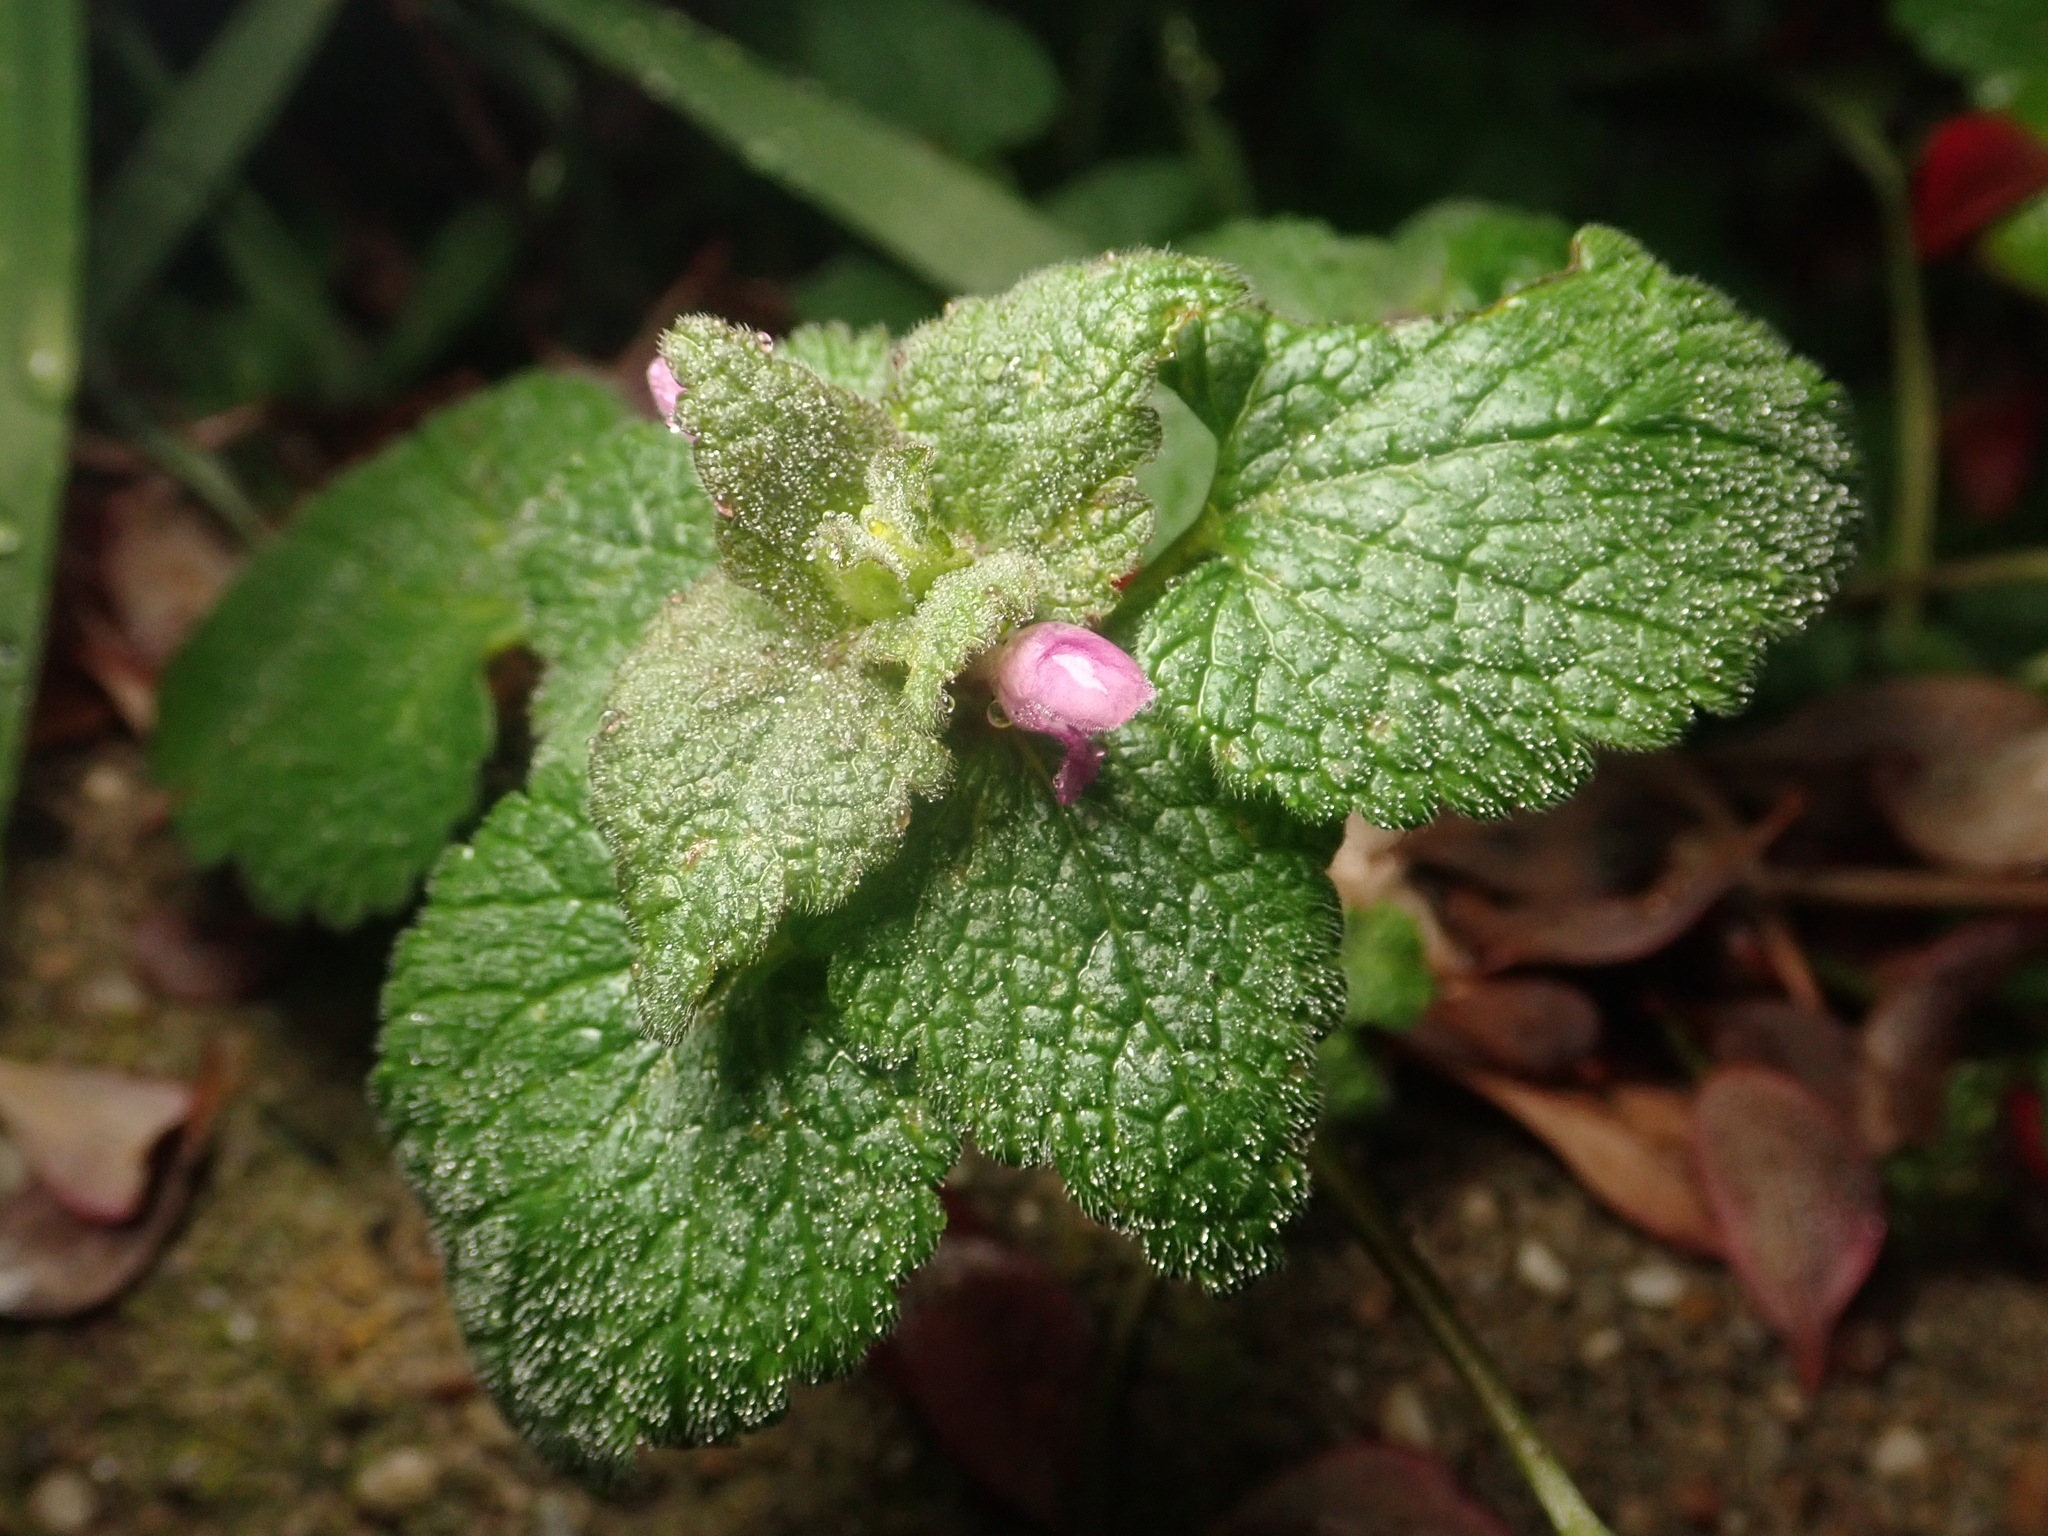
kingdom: Plantae
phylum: Tracheophyta
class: Magnoliopsida
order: Lamiales
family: Lamiaceae
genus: Lamium
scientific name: Lamium purpureum
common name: Red dead-nettle
